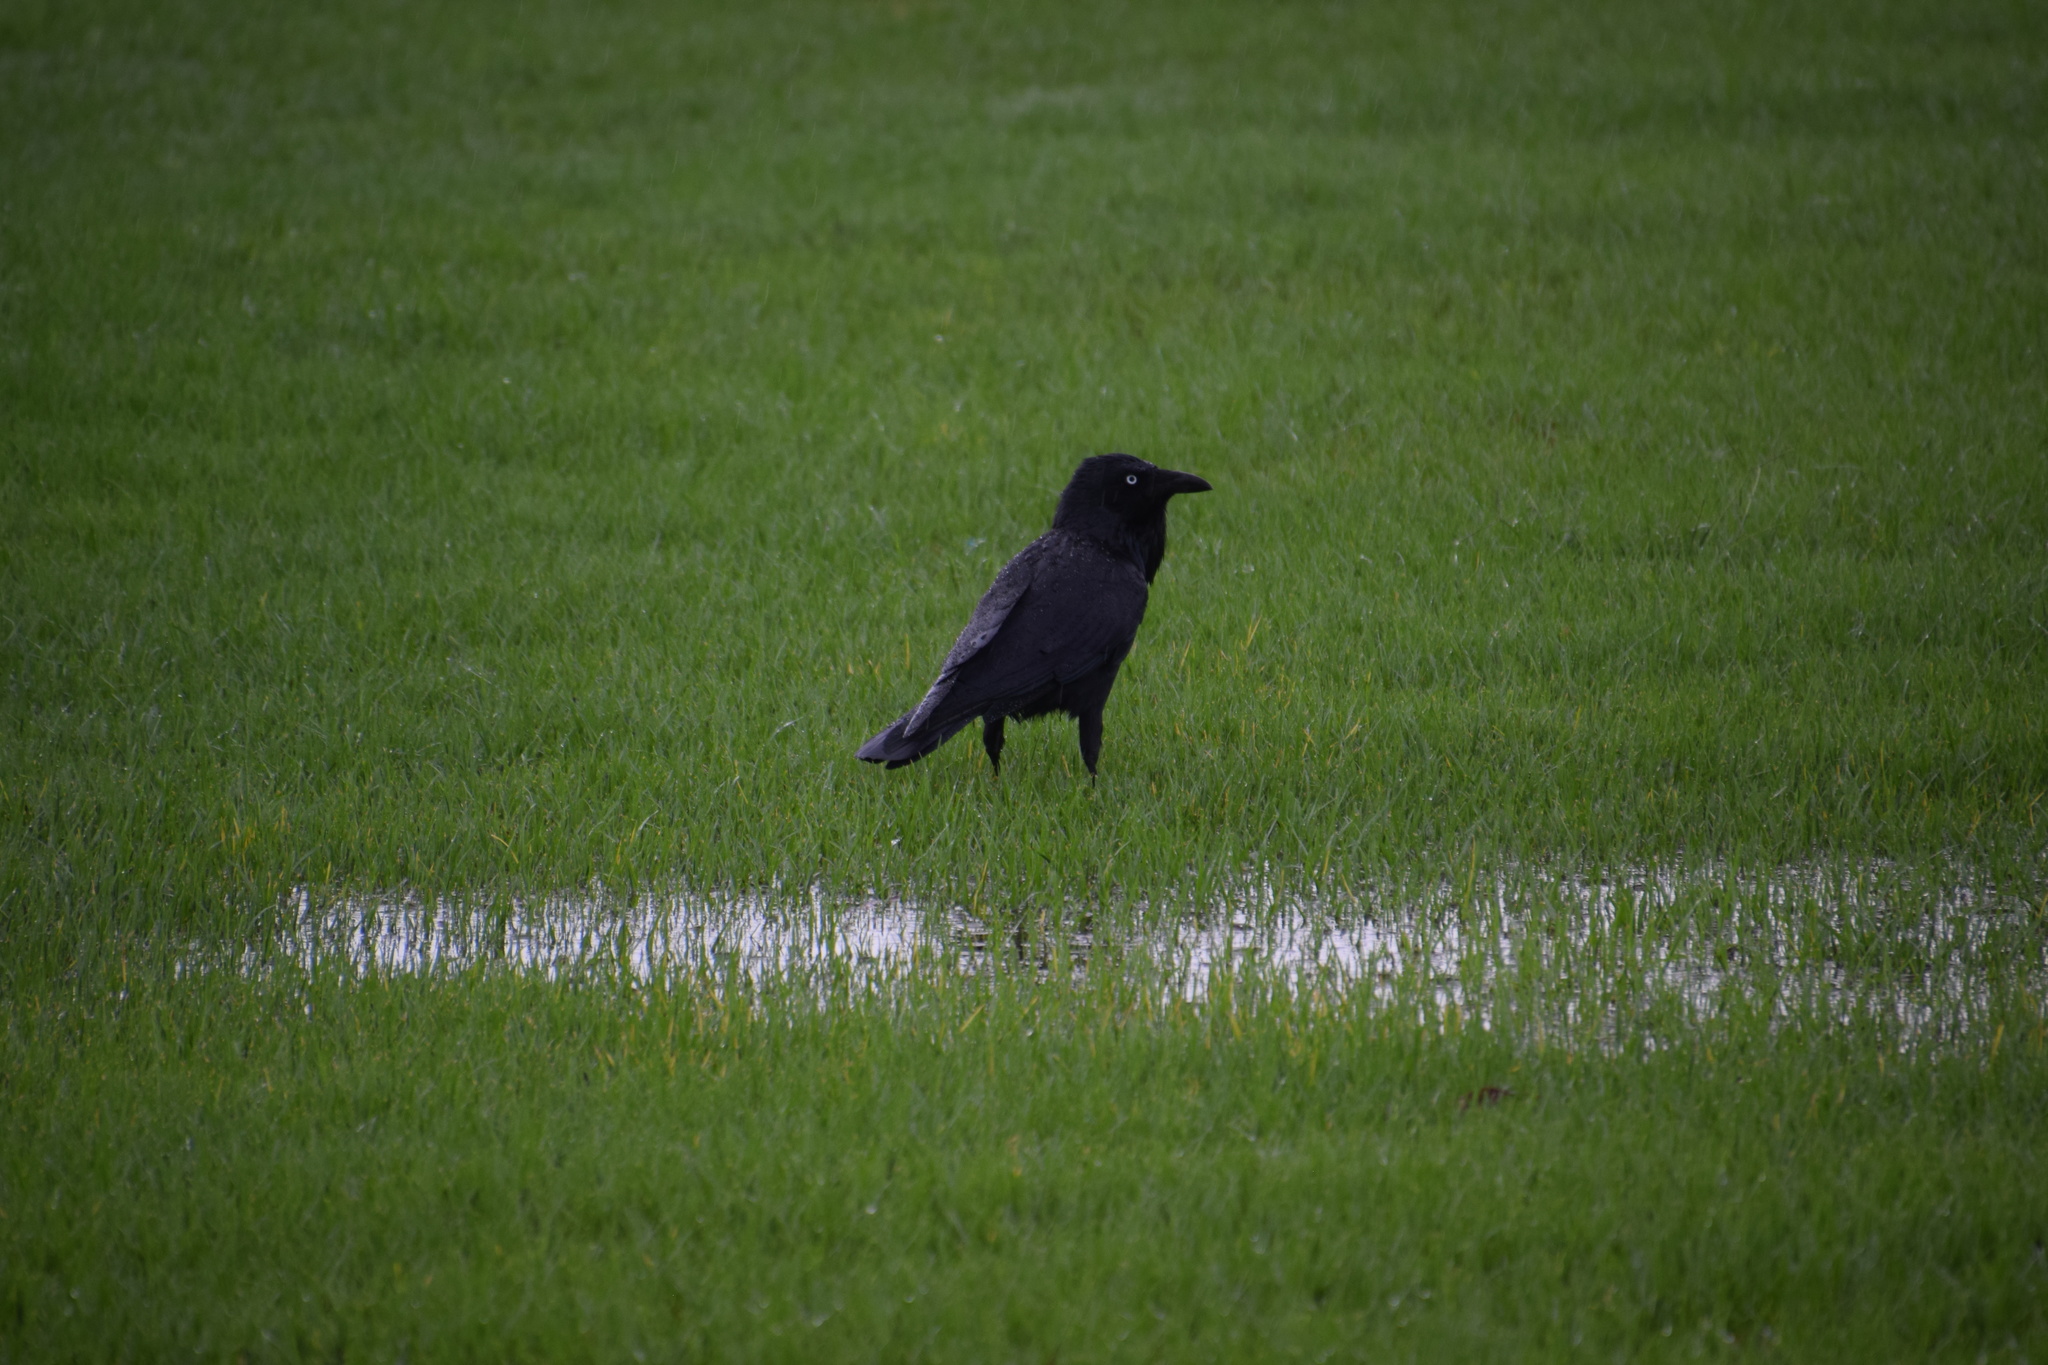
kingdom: Animalia
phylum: Chordata
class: Aves
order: Passeriformes
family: Corvidae
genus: Corvus
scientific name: Corvus coronoides
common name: Australian raven
